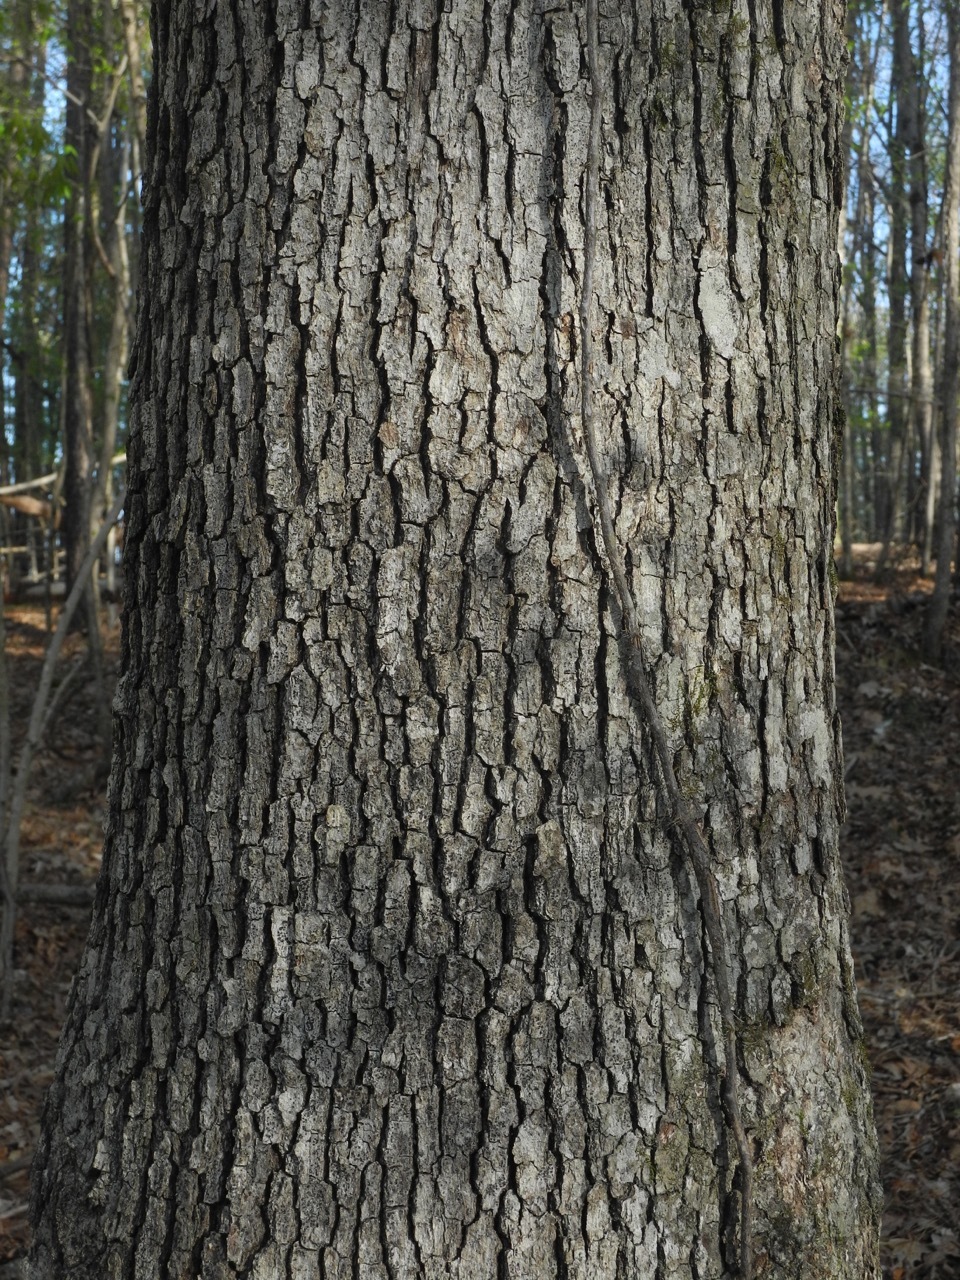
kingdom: Plantae
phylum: Tracheophyta
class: Magnoliopsida
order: Fagales
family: Fagaceae
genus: Quercus
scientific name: Quercus alba
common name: White oak
